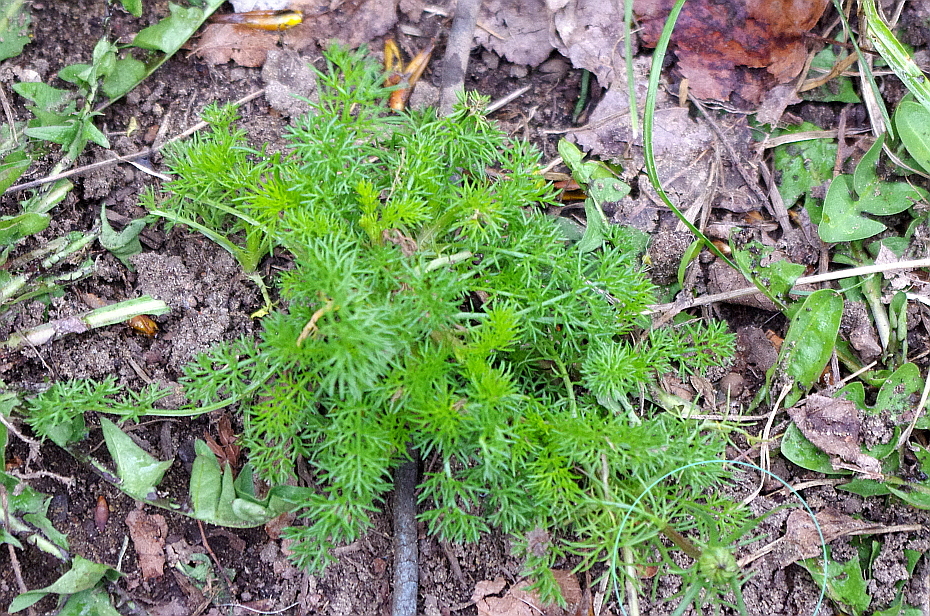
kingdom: Plantae
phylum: Tracheophyta
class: Magnoliopsida
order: Asterales
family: Asteraceae
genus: Tripleurospermum
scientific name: Tripleurospermum inodorum
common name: Scentless mayweed
